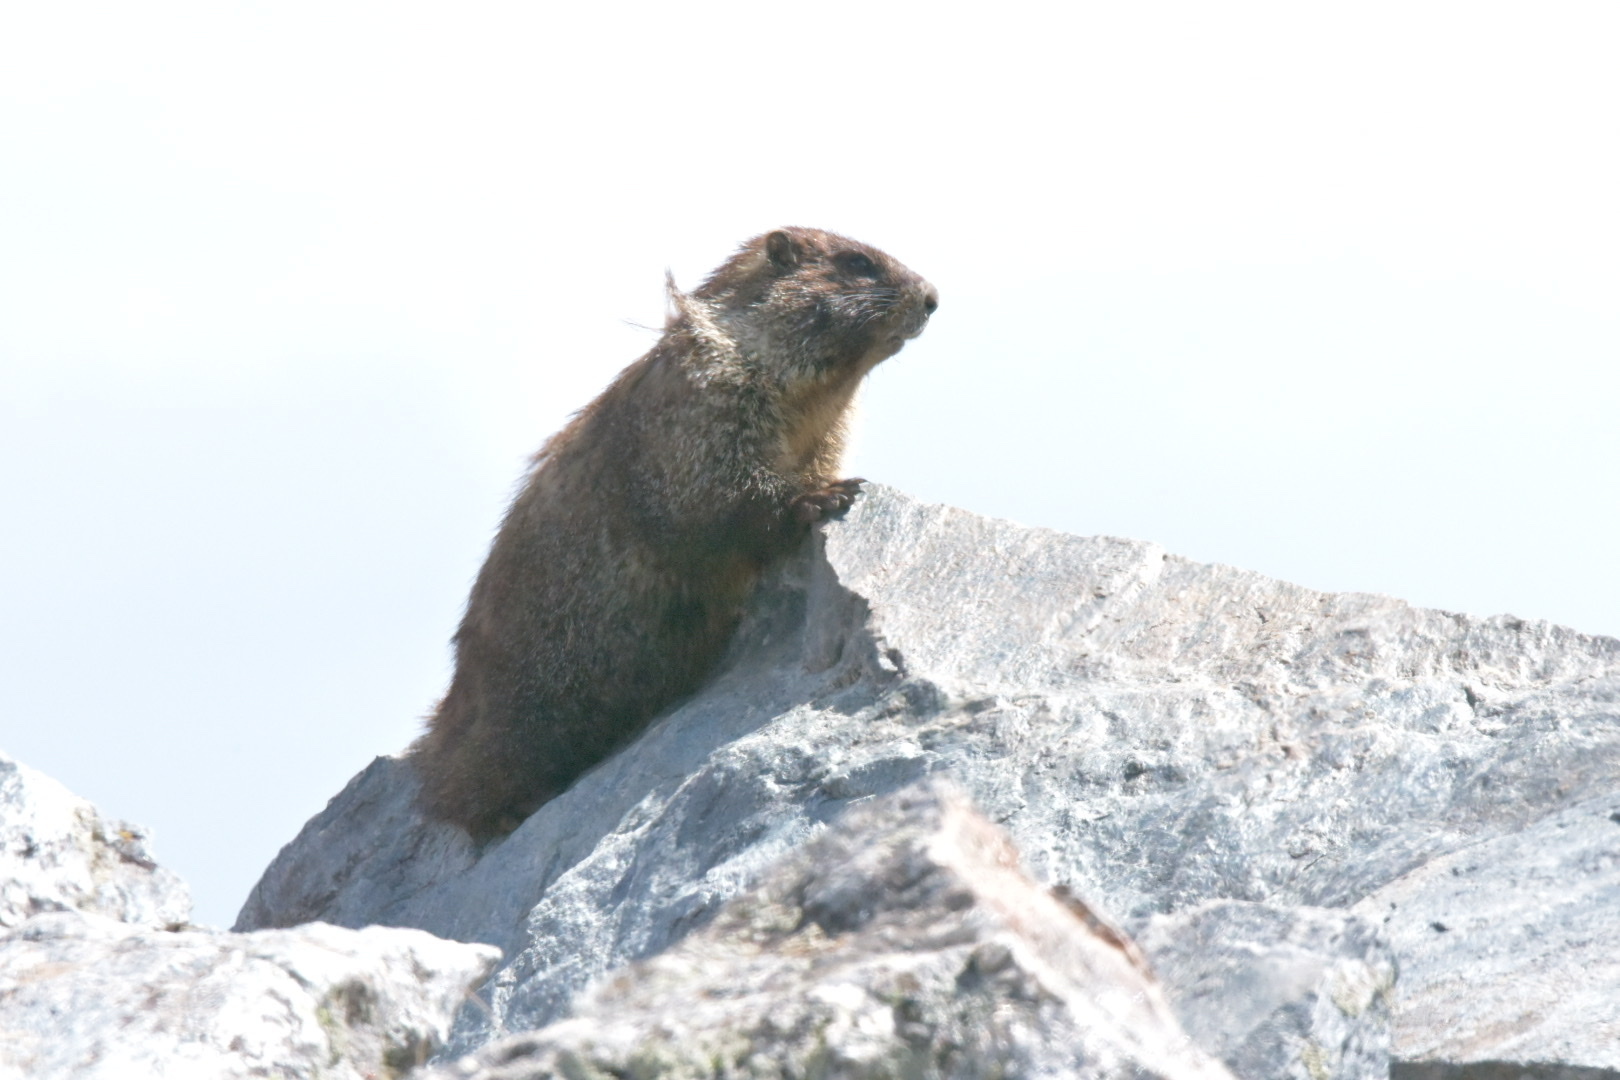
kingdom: Animalia
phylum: Chordata
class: Mammalia
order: Rodentia
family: Sciuridae
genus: Marmota
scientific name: Marmota flaviventris
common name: Yellow-bellied marmot
